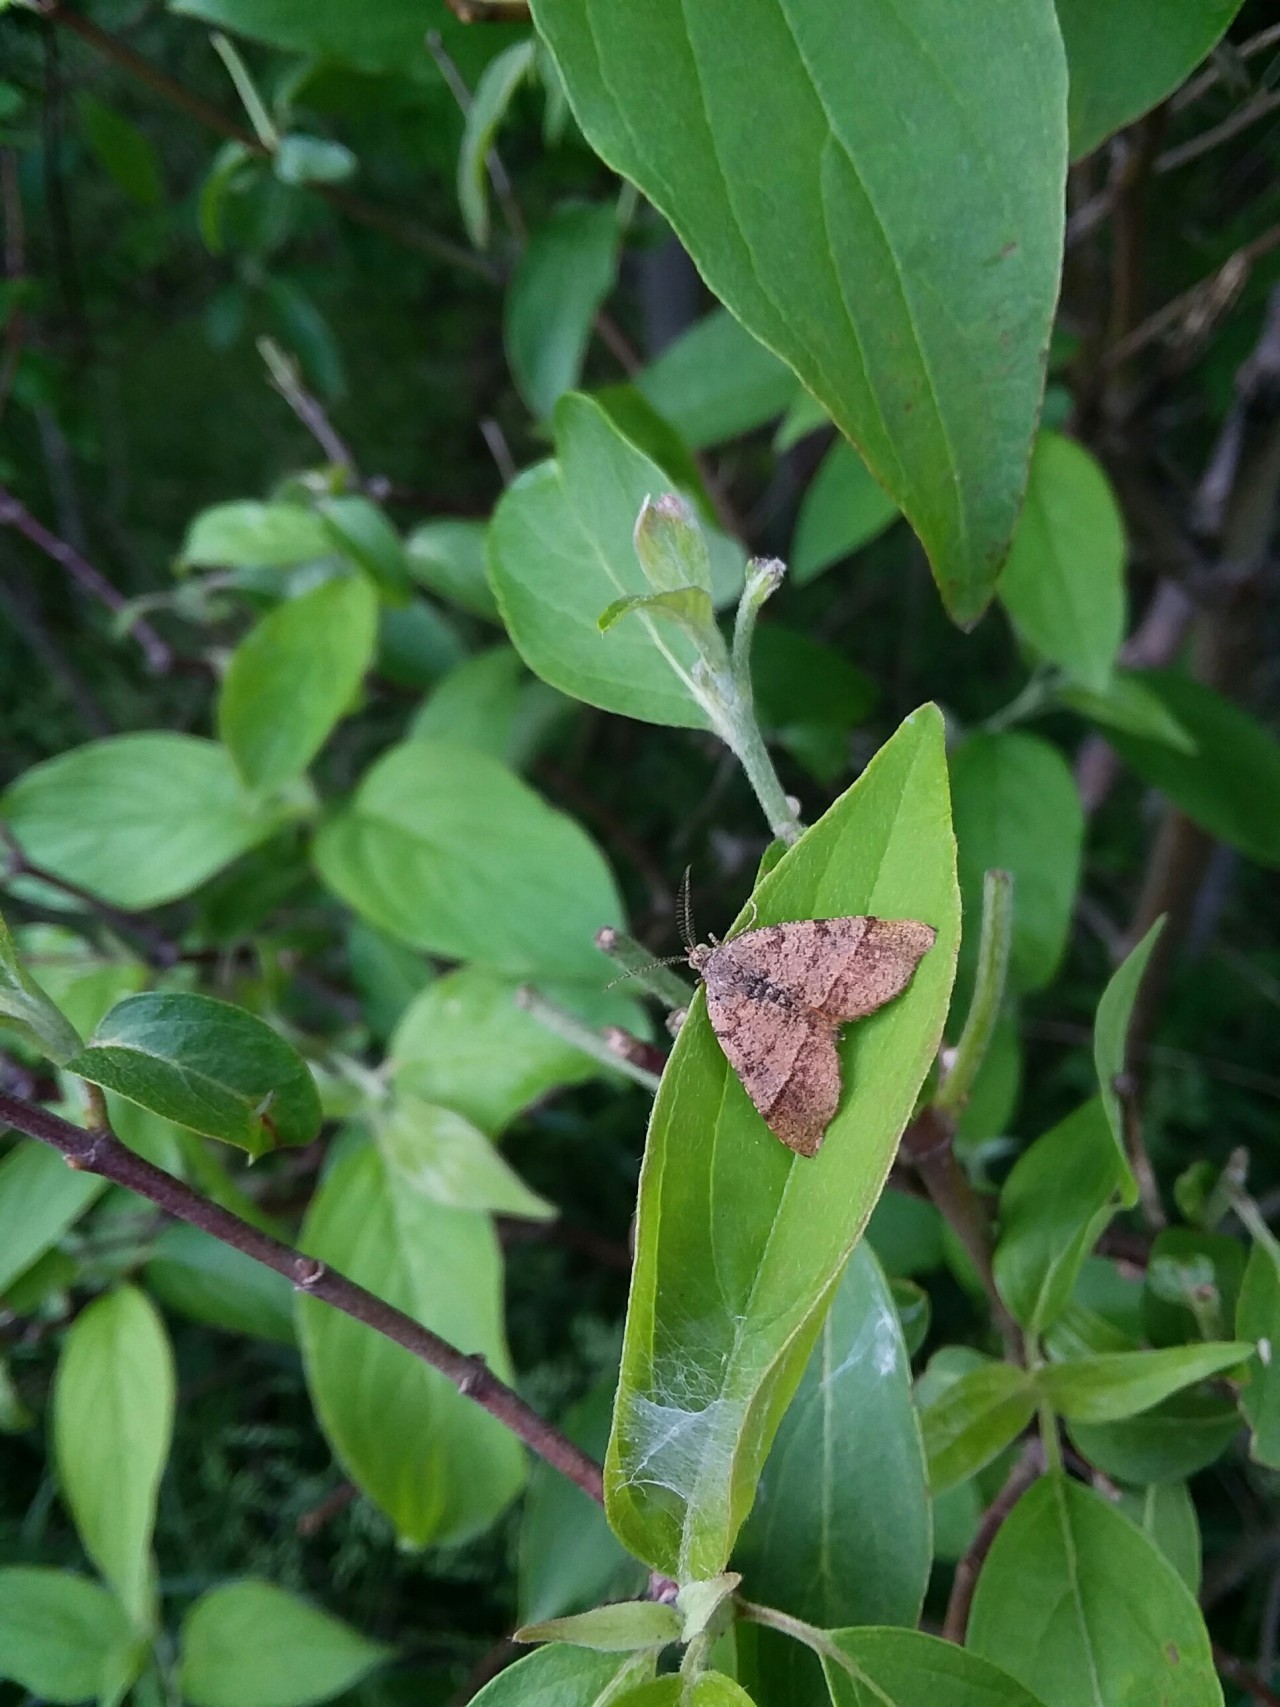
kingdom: Animalia
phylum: Arthropoda
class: Insecta
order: Lepidoptera
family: Geometridae
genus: Mellilla
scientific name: Mellilla xanthometata
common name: Orange wing moth
